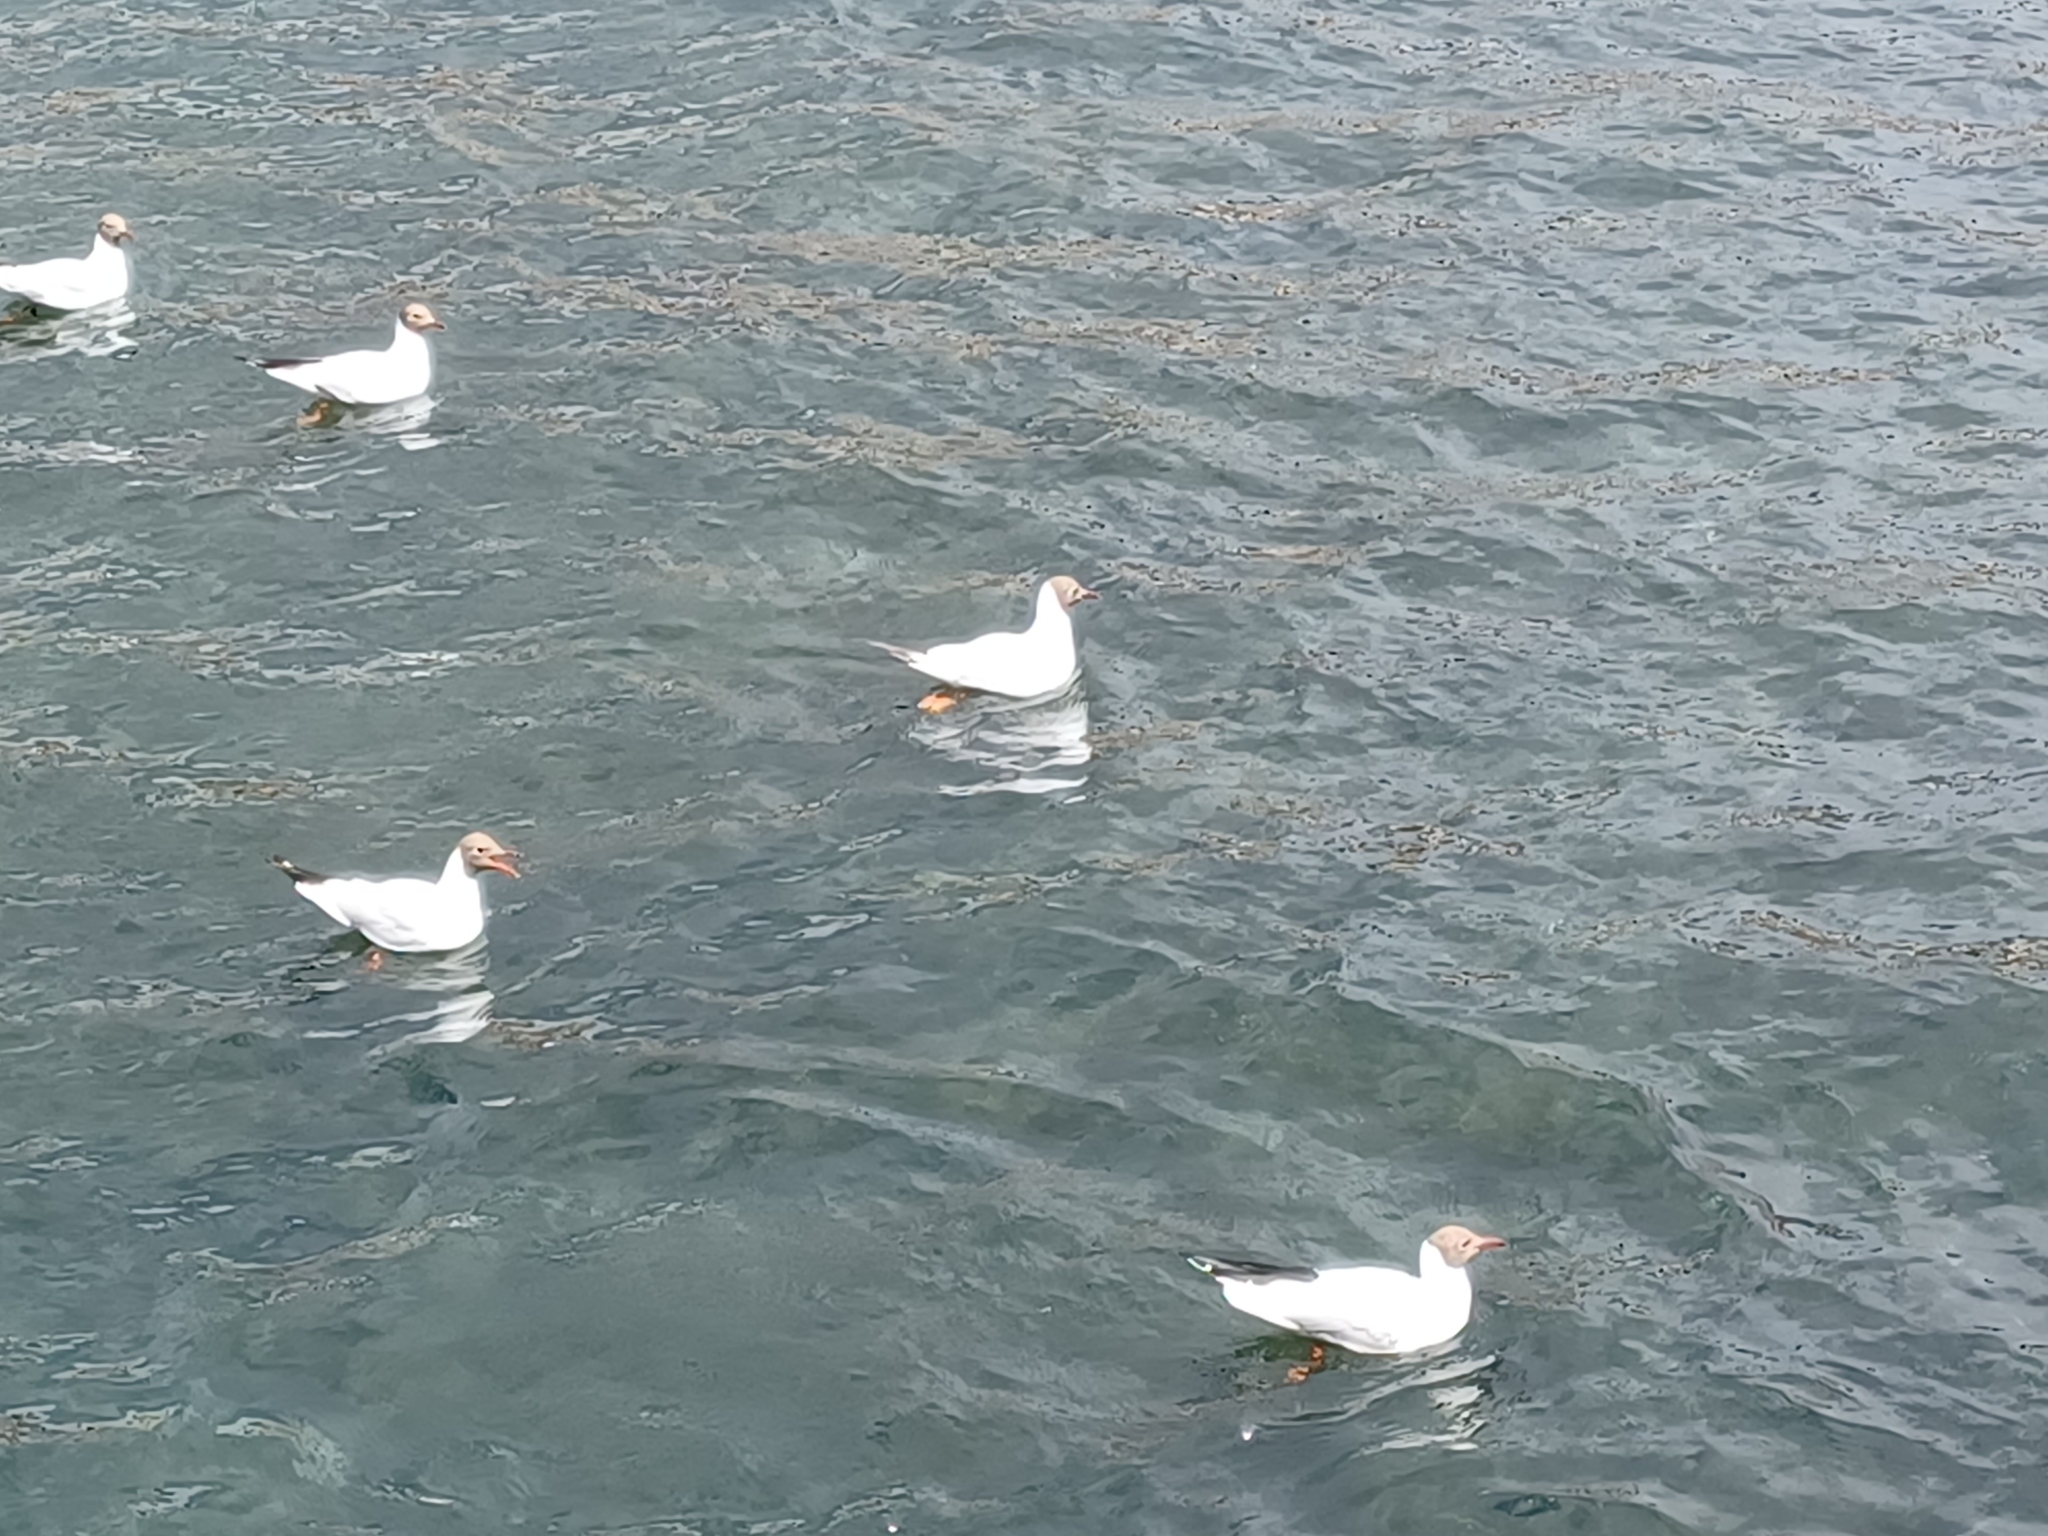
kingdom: Animalia
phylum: Chordata
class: Aves
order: Charadriiformes
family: Laridae
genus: Chroicocephalus
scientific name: Chroicocephalus ridibundus
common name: Black-headed gull
